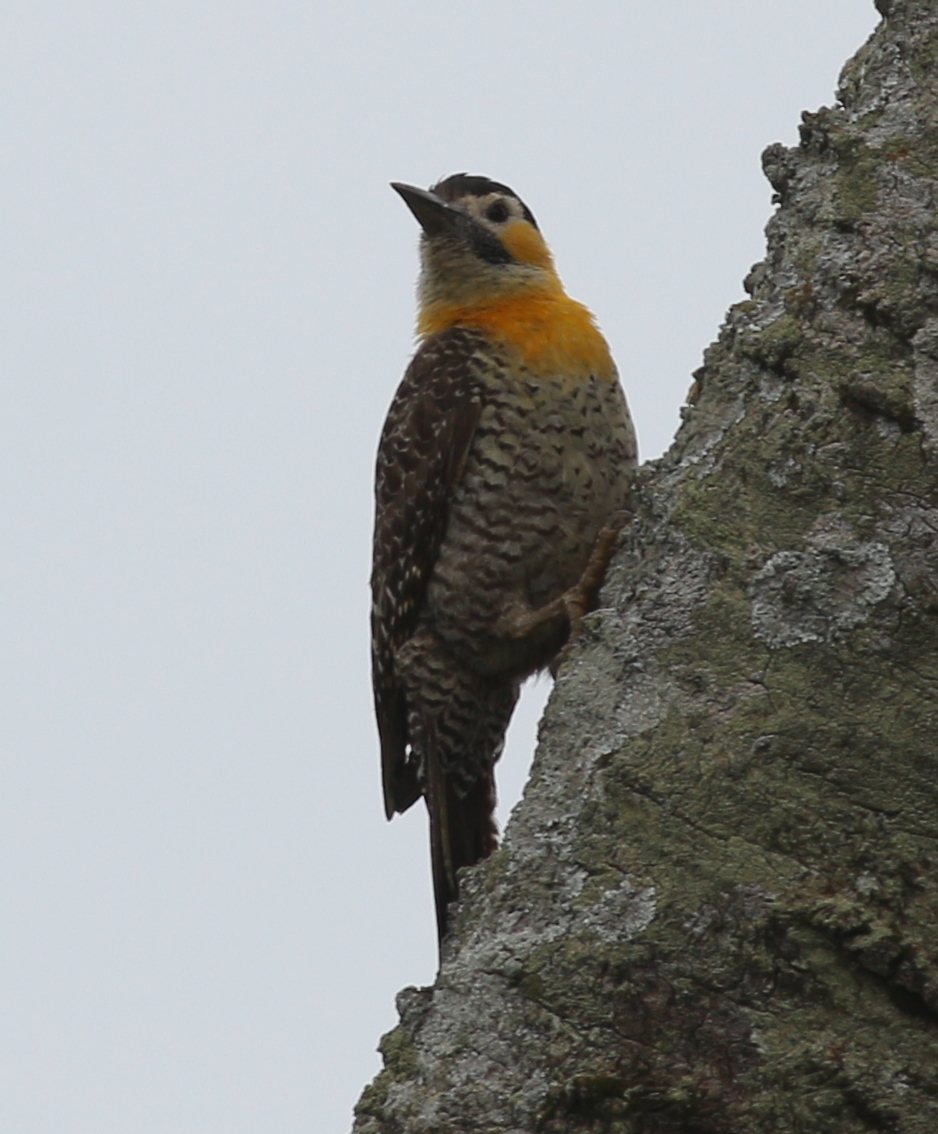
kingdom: Animalia
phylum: Chordata
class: Aves
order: Piciformes
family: Picidae
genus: Colaptes
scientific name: Colaptes campestris
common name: Campo flicker
